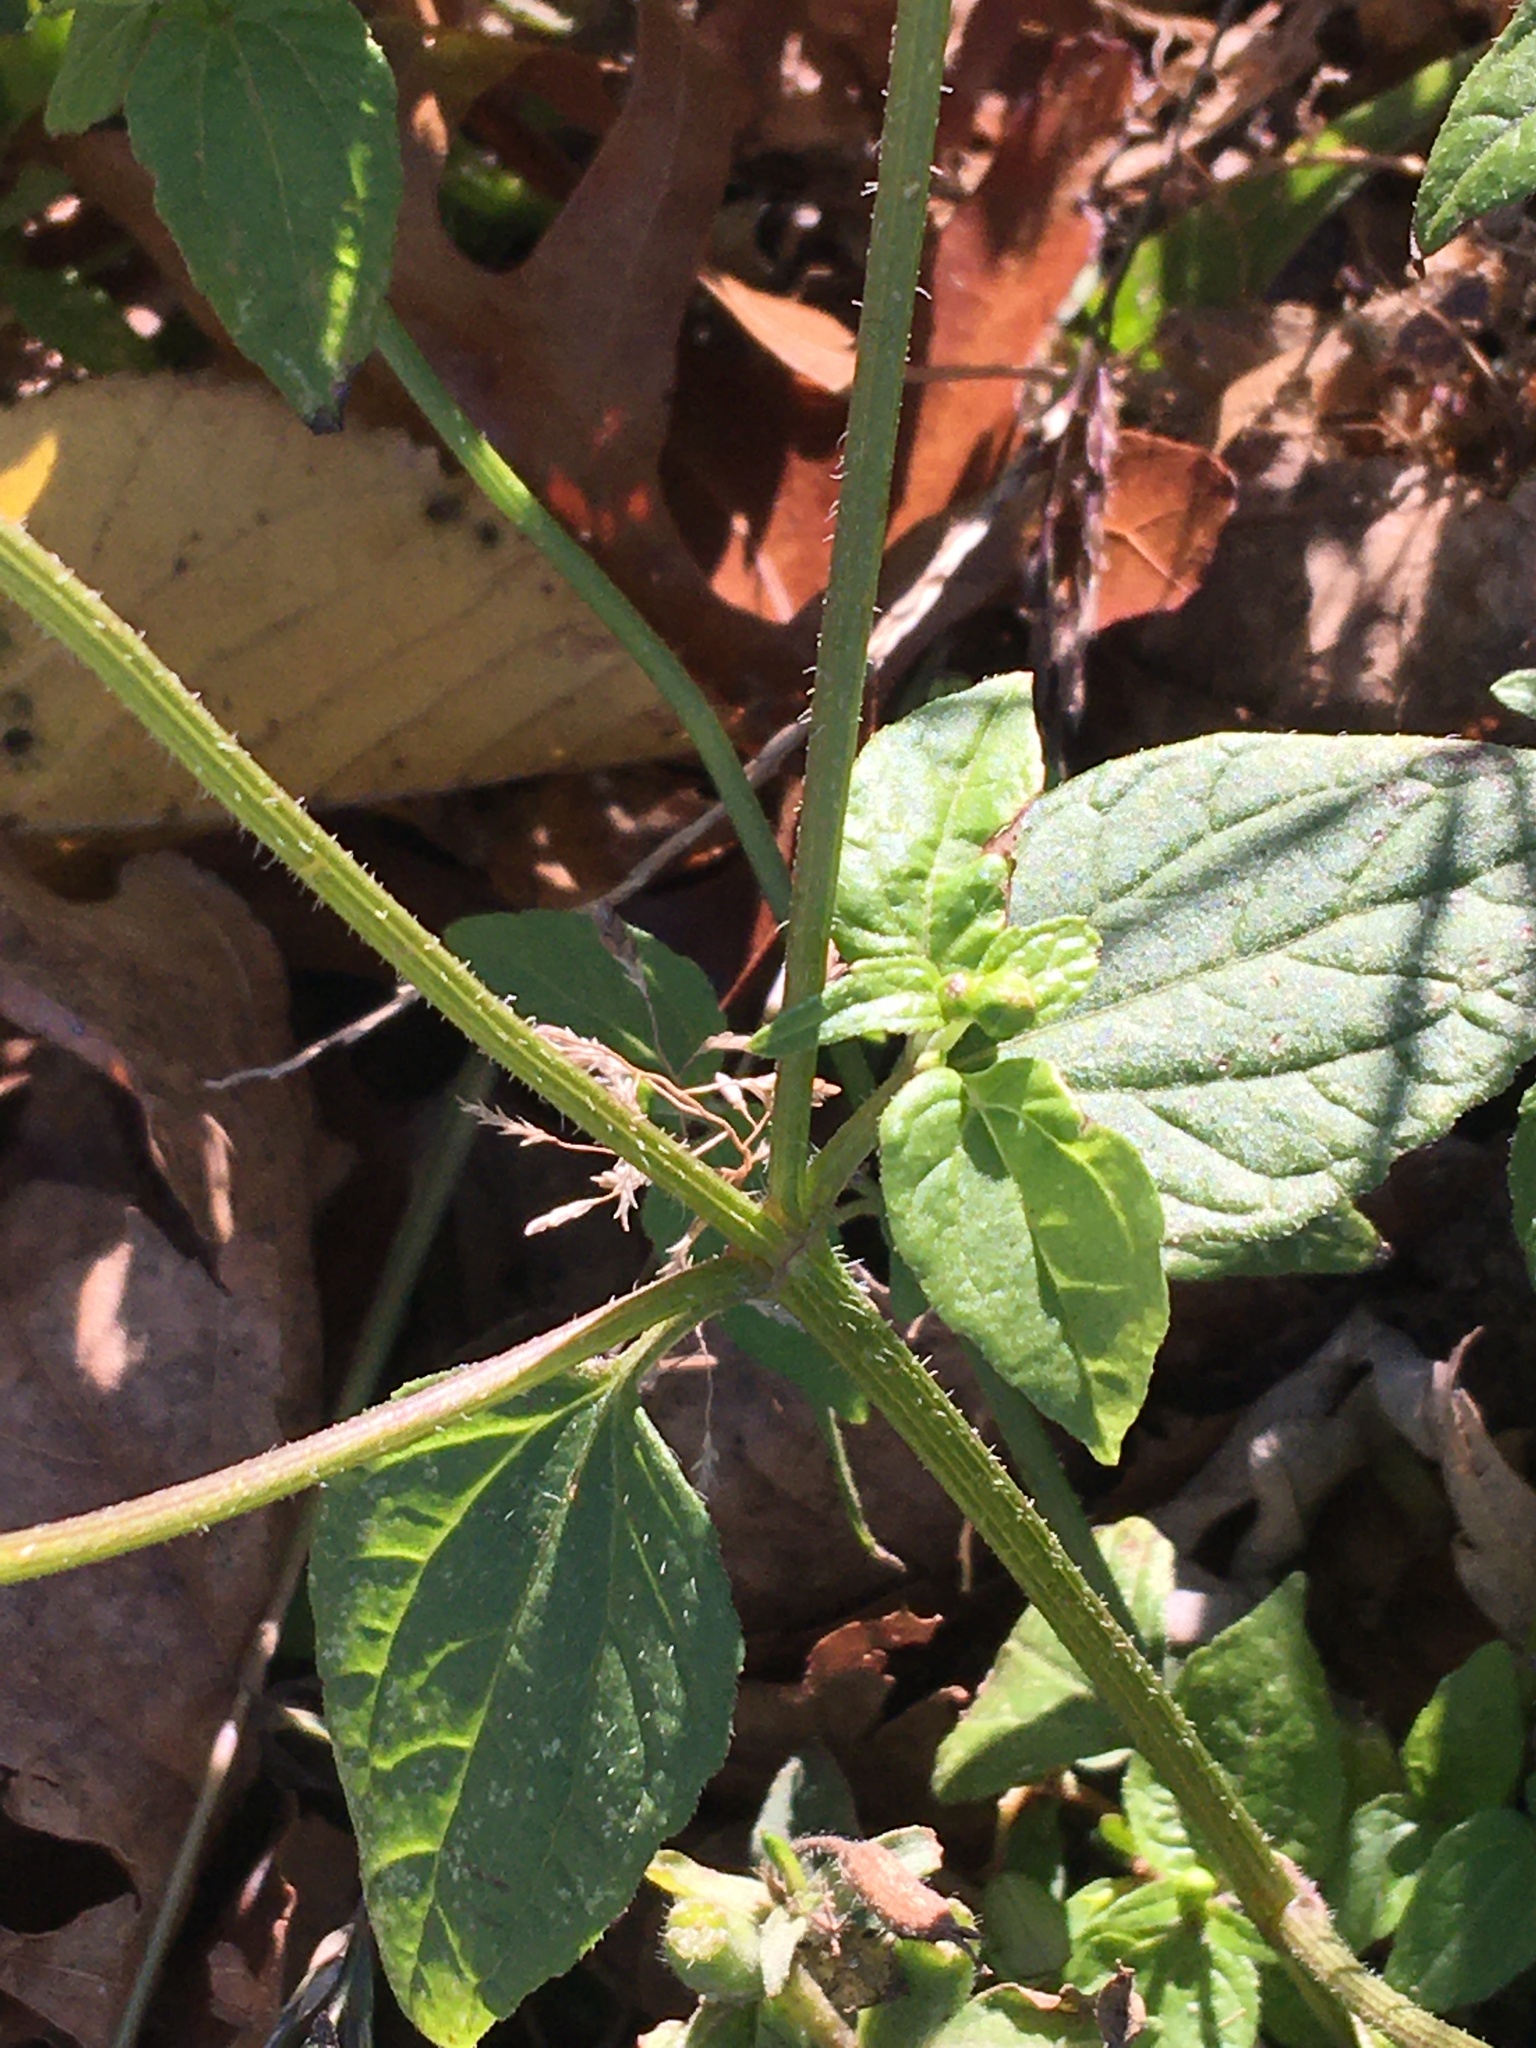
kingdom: Plantae
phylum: Tracheophyta
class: Magnoliopsida
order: Asterales
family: Asteraceae
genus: Galinsoga
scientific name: Galinsoga parviflora
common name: Gallant soldier
